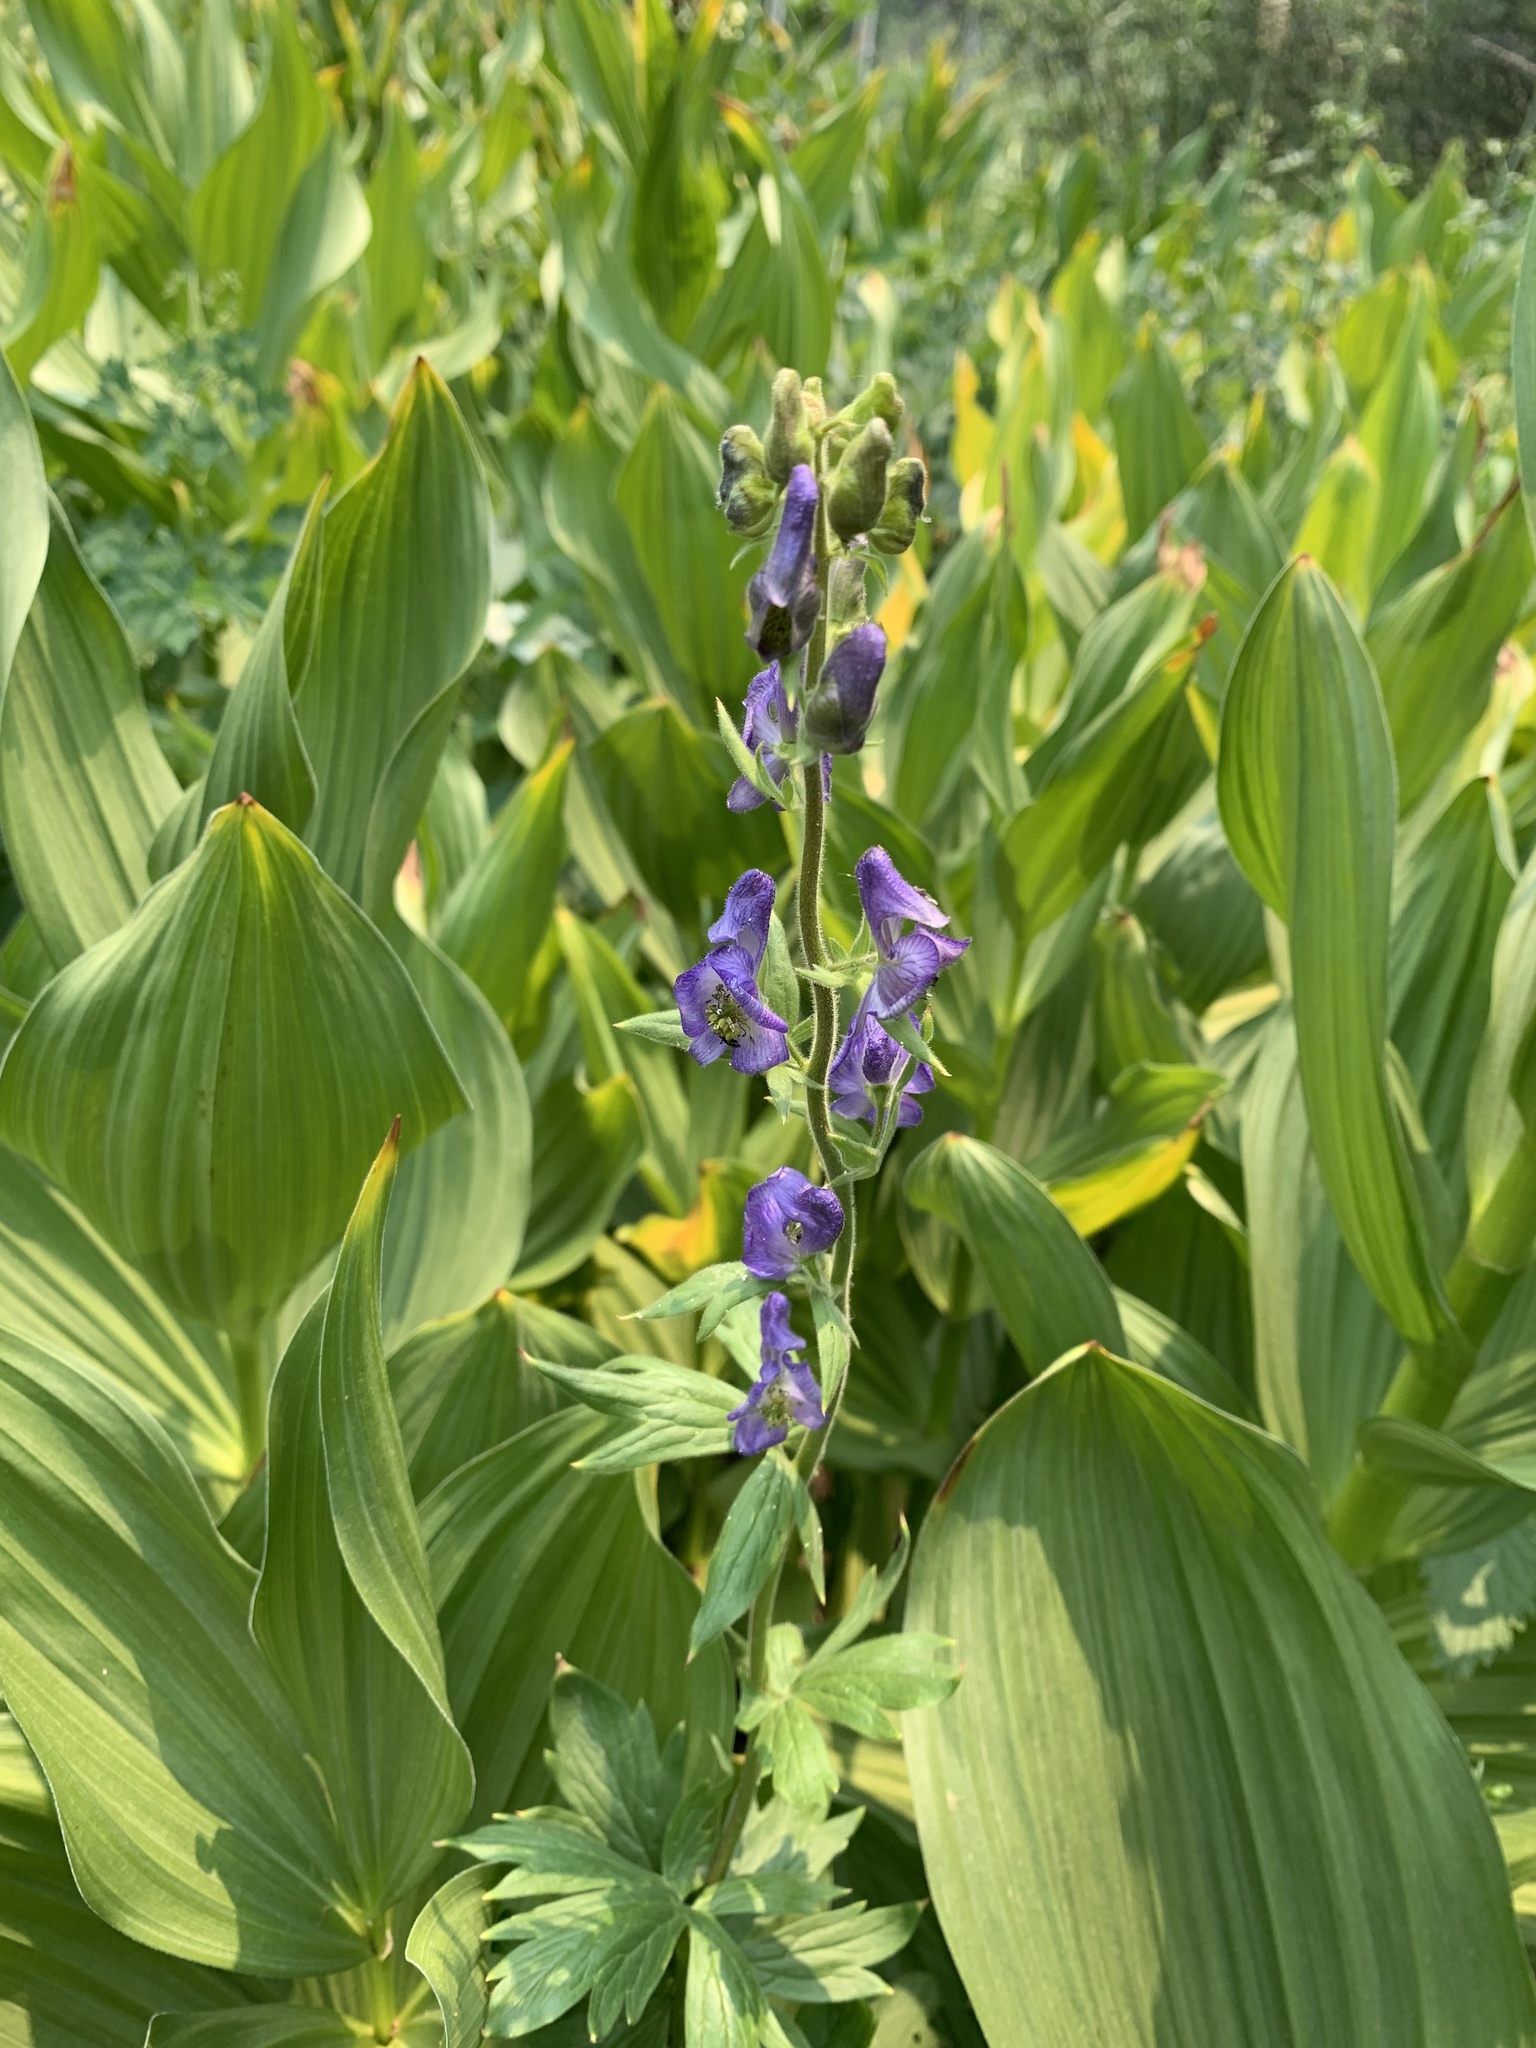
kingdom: Plantae
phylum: Tracheophyta
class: Magnoliopsida
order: Ranunculales
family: Ranunculaceae
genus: Aconitum
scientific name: Aconitum columbianum
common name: Columbia aconite
